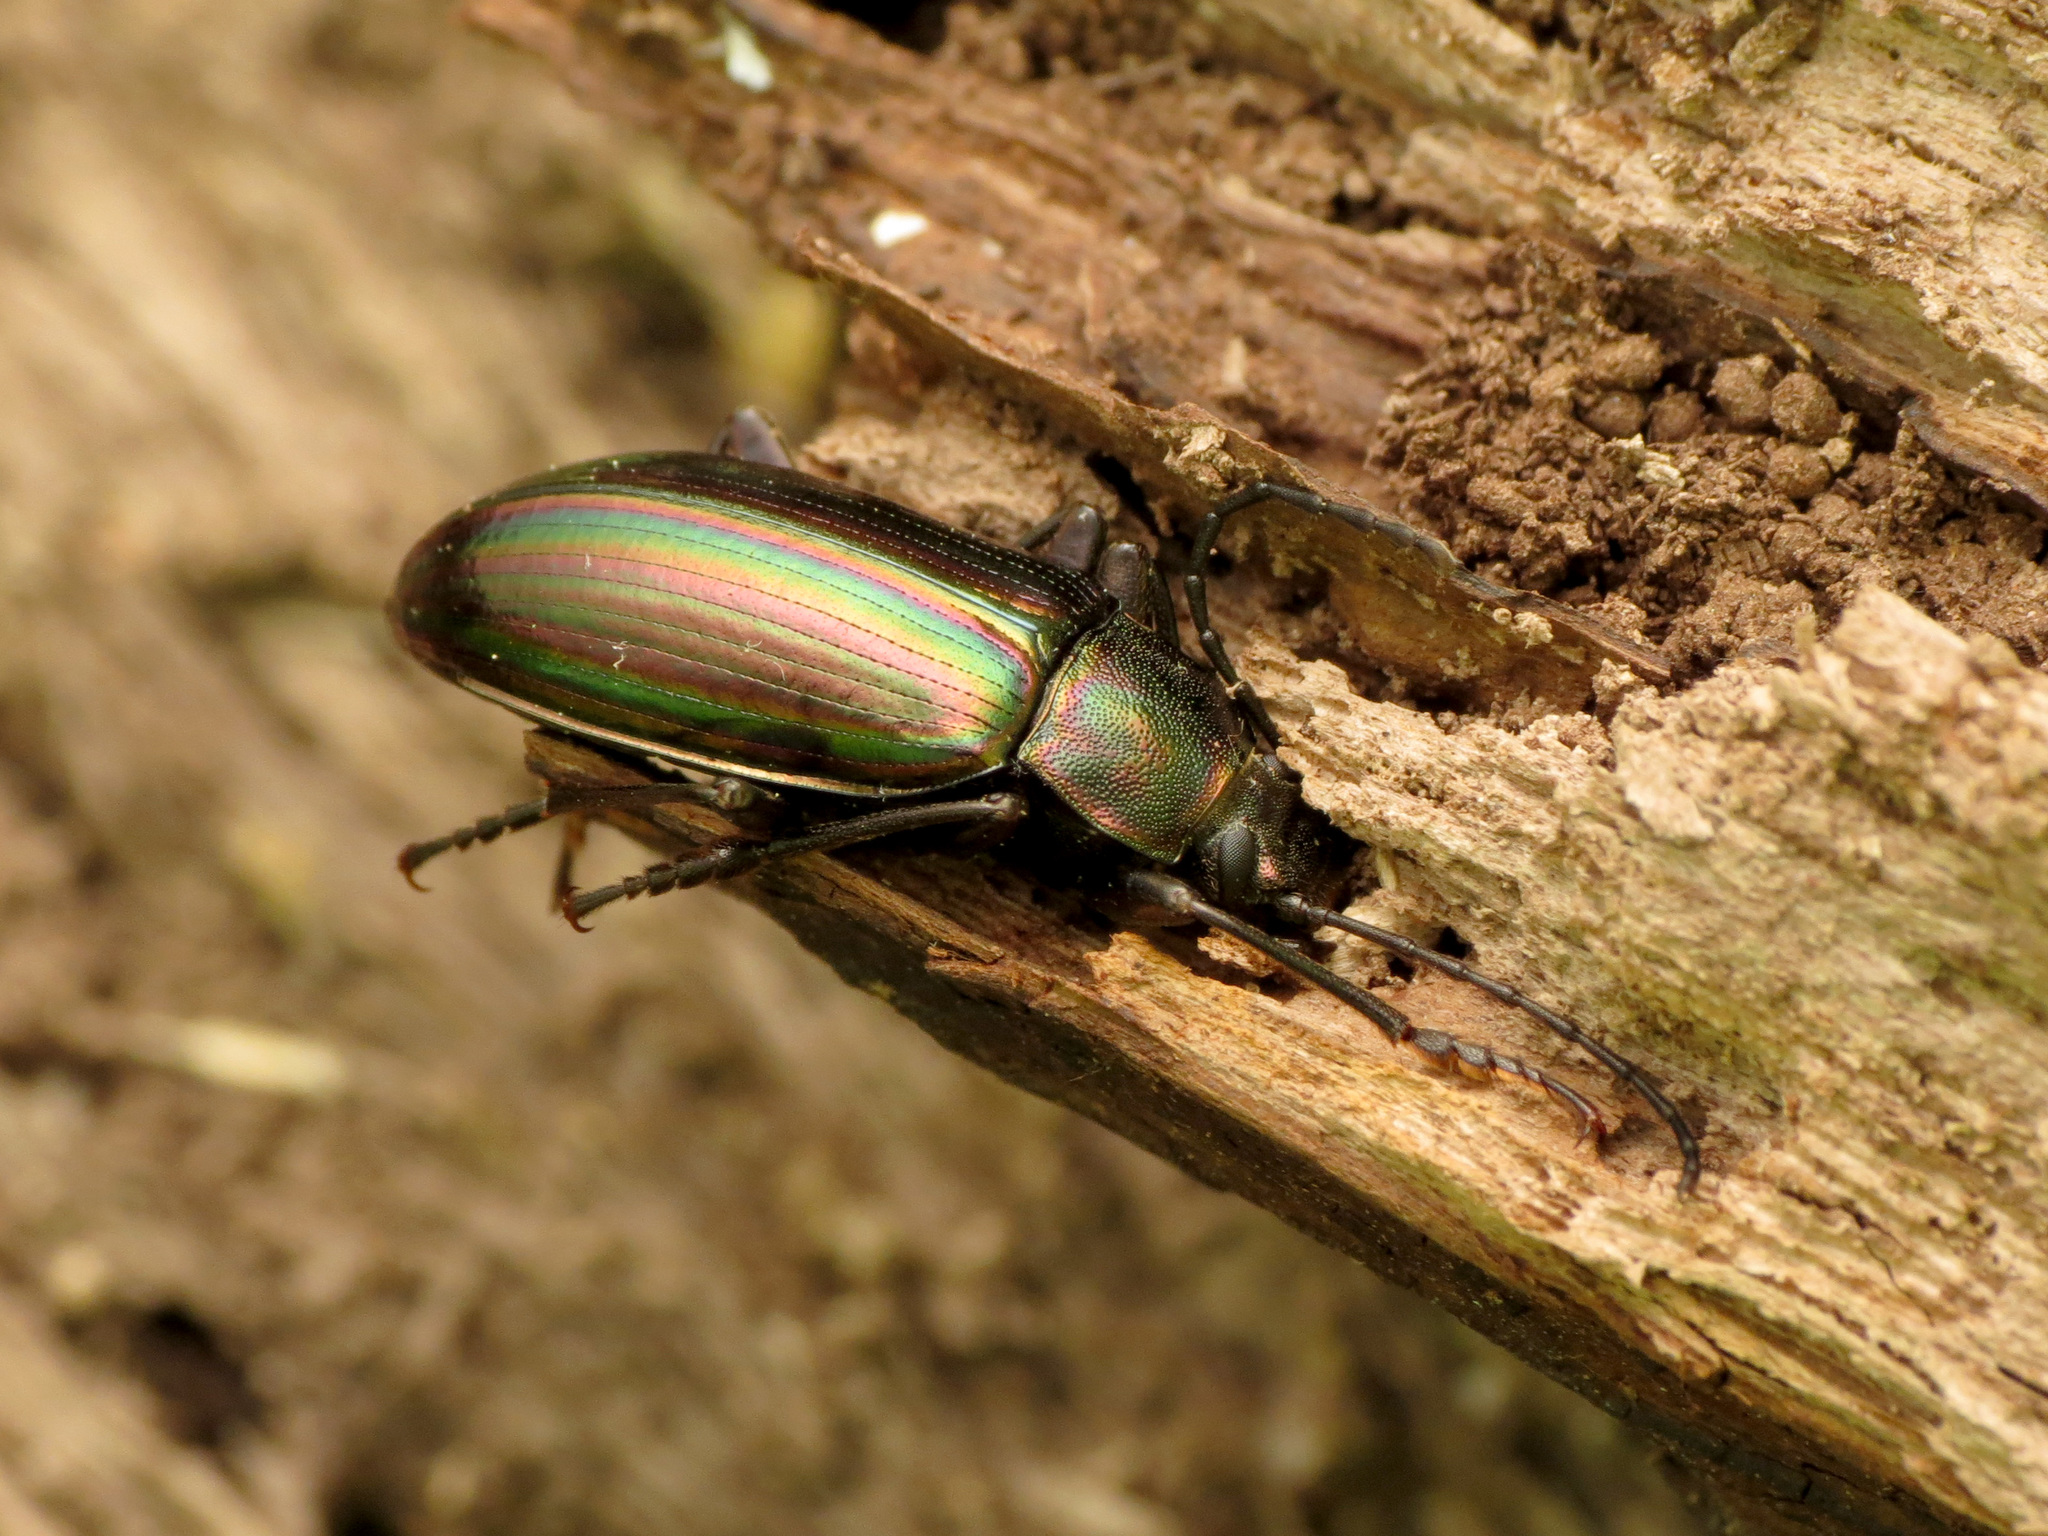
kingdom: Animalia
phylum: Arthropoda
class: Insecta
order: Coleoptera
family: Tenebrionidae
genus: Tarpela
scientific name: Tarpela micans
